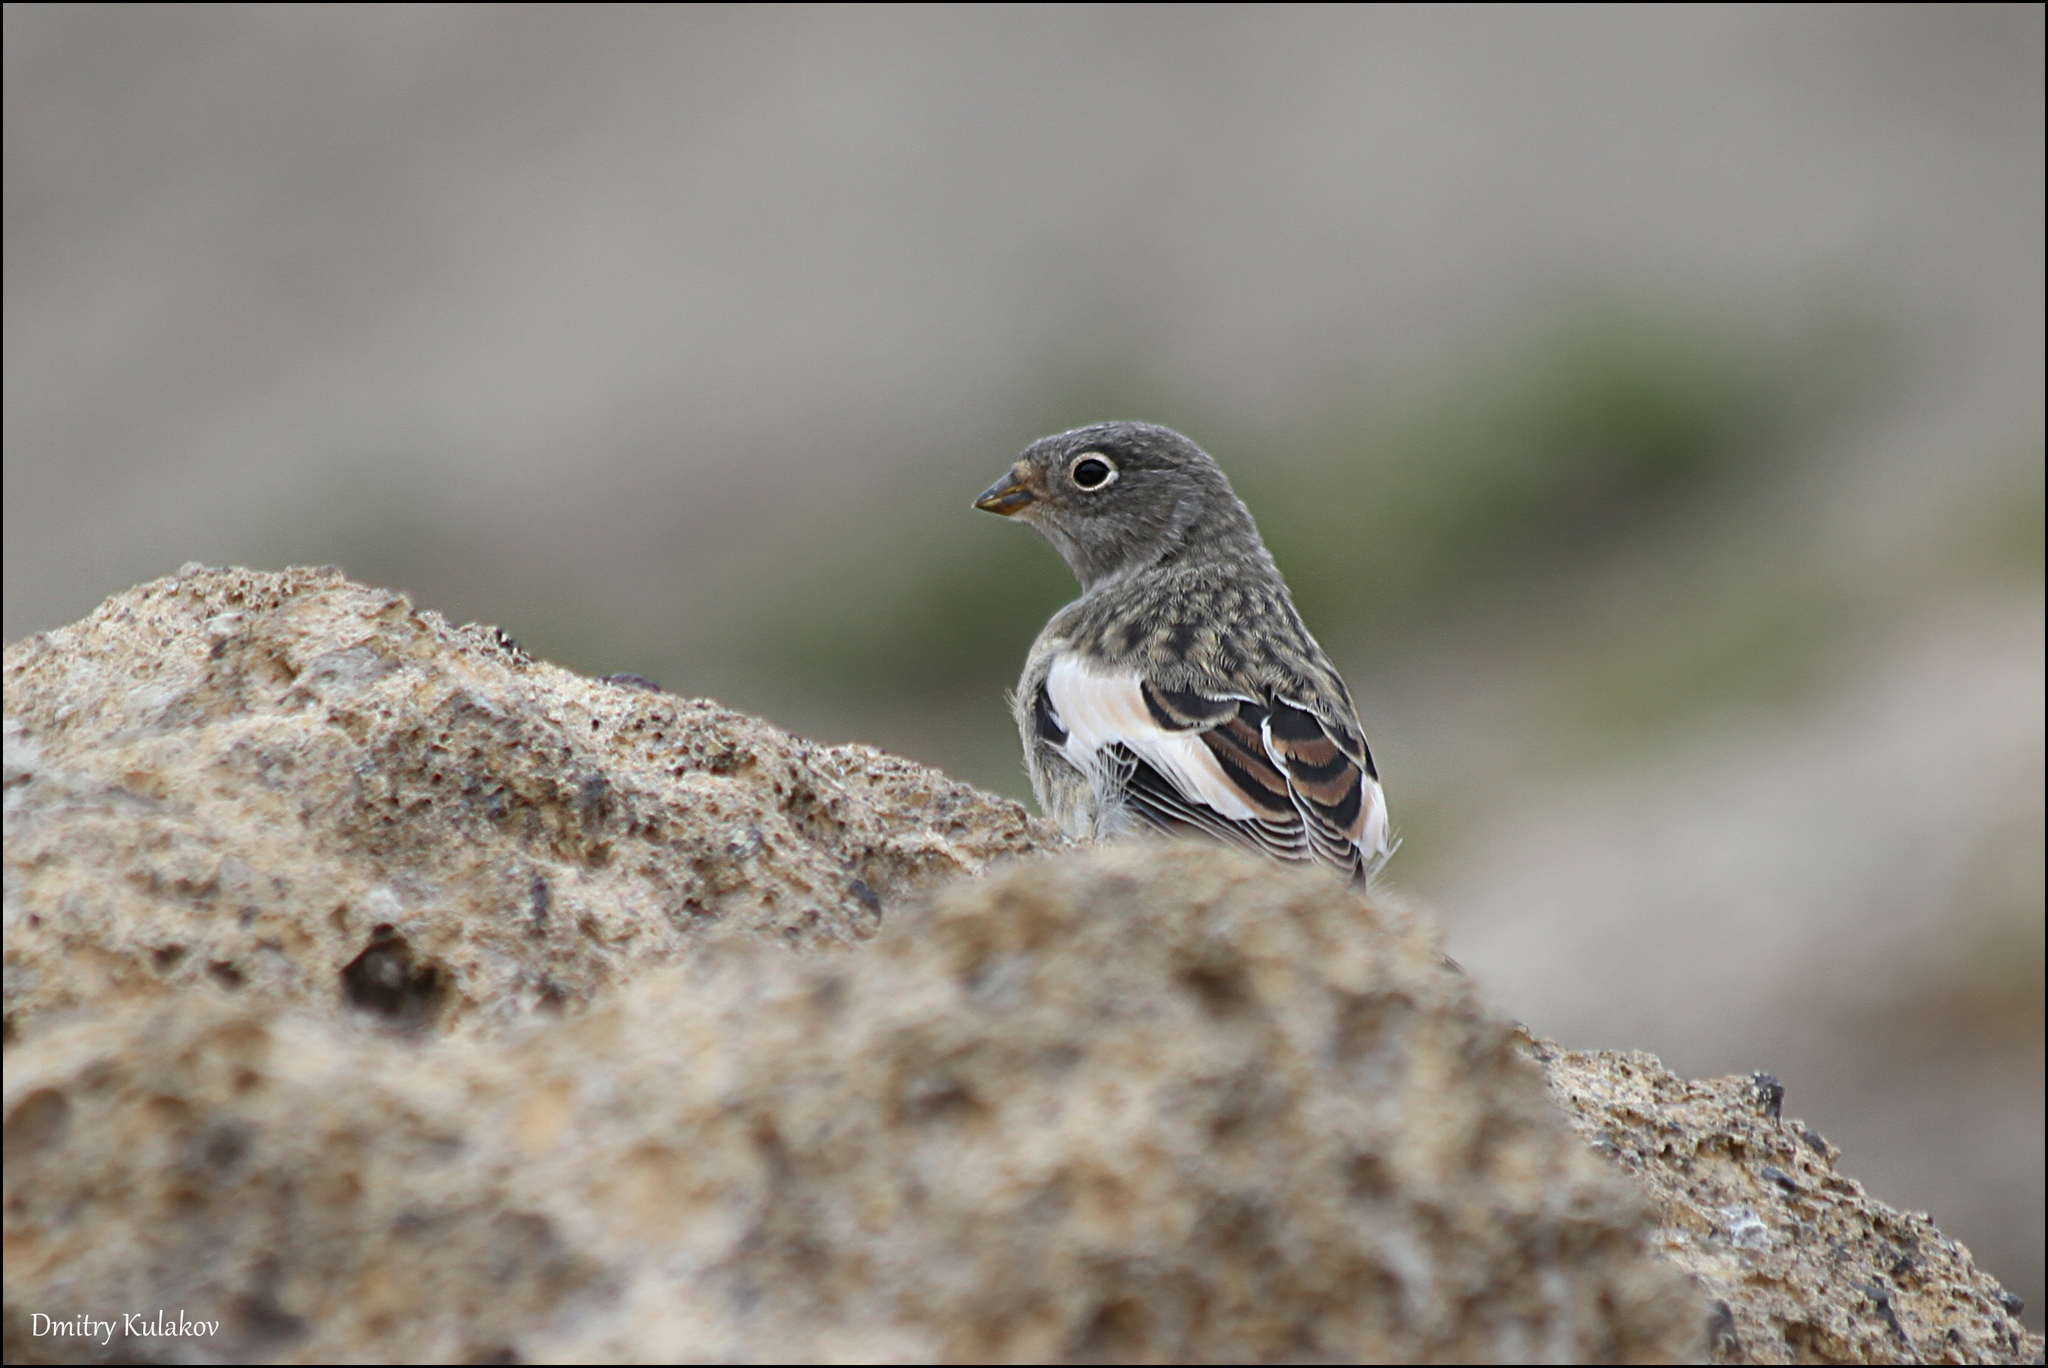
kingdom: Animalia
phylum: Chordata
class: Aves
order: Passeriformes
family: Calcariidae
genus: Plectrophenax
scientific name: Plectrophenax nivalis
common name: Snow bunting
